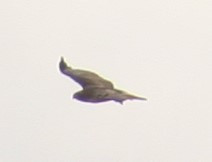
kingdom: Animalia
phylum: Chordata
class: Aves
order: Accipitriformes
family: Accipitridae
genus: Buteo
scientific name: Buteo jamaicensis
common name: Red-tailed hawk
